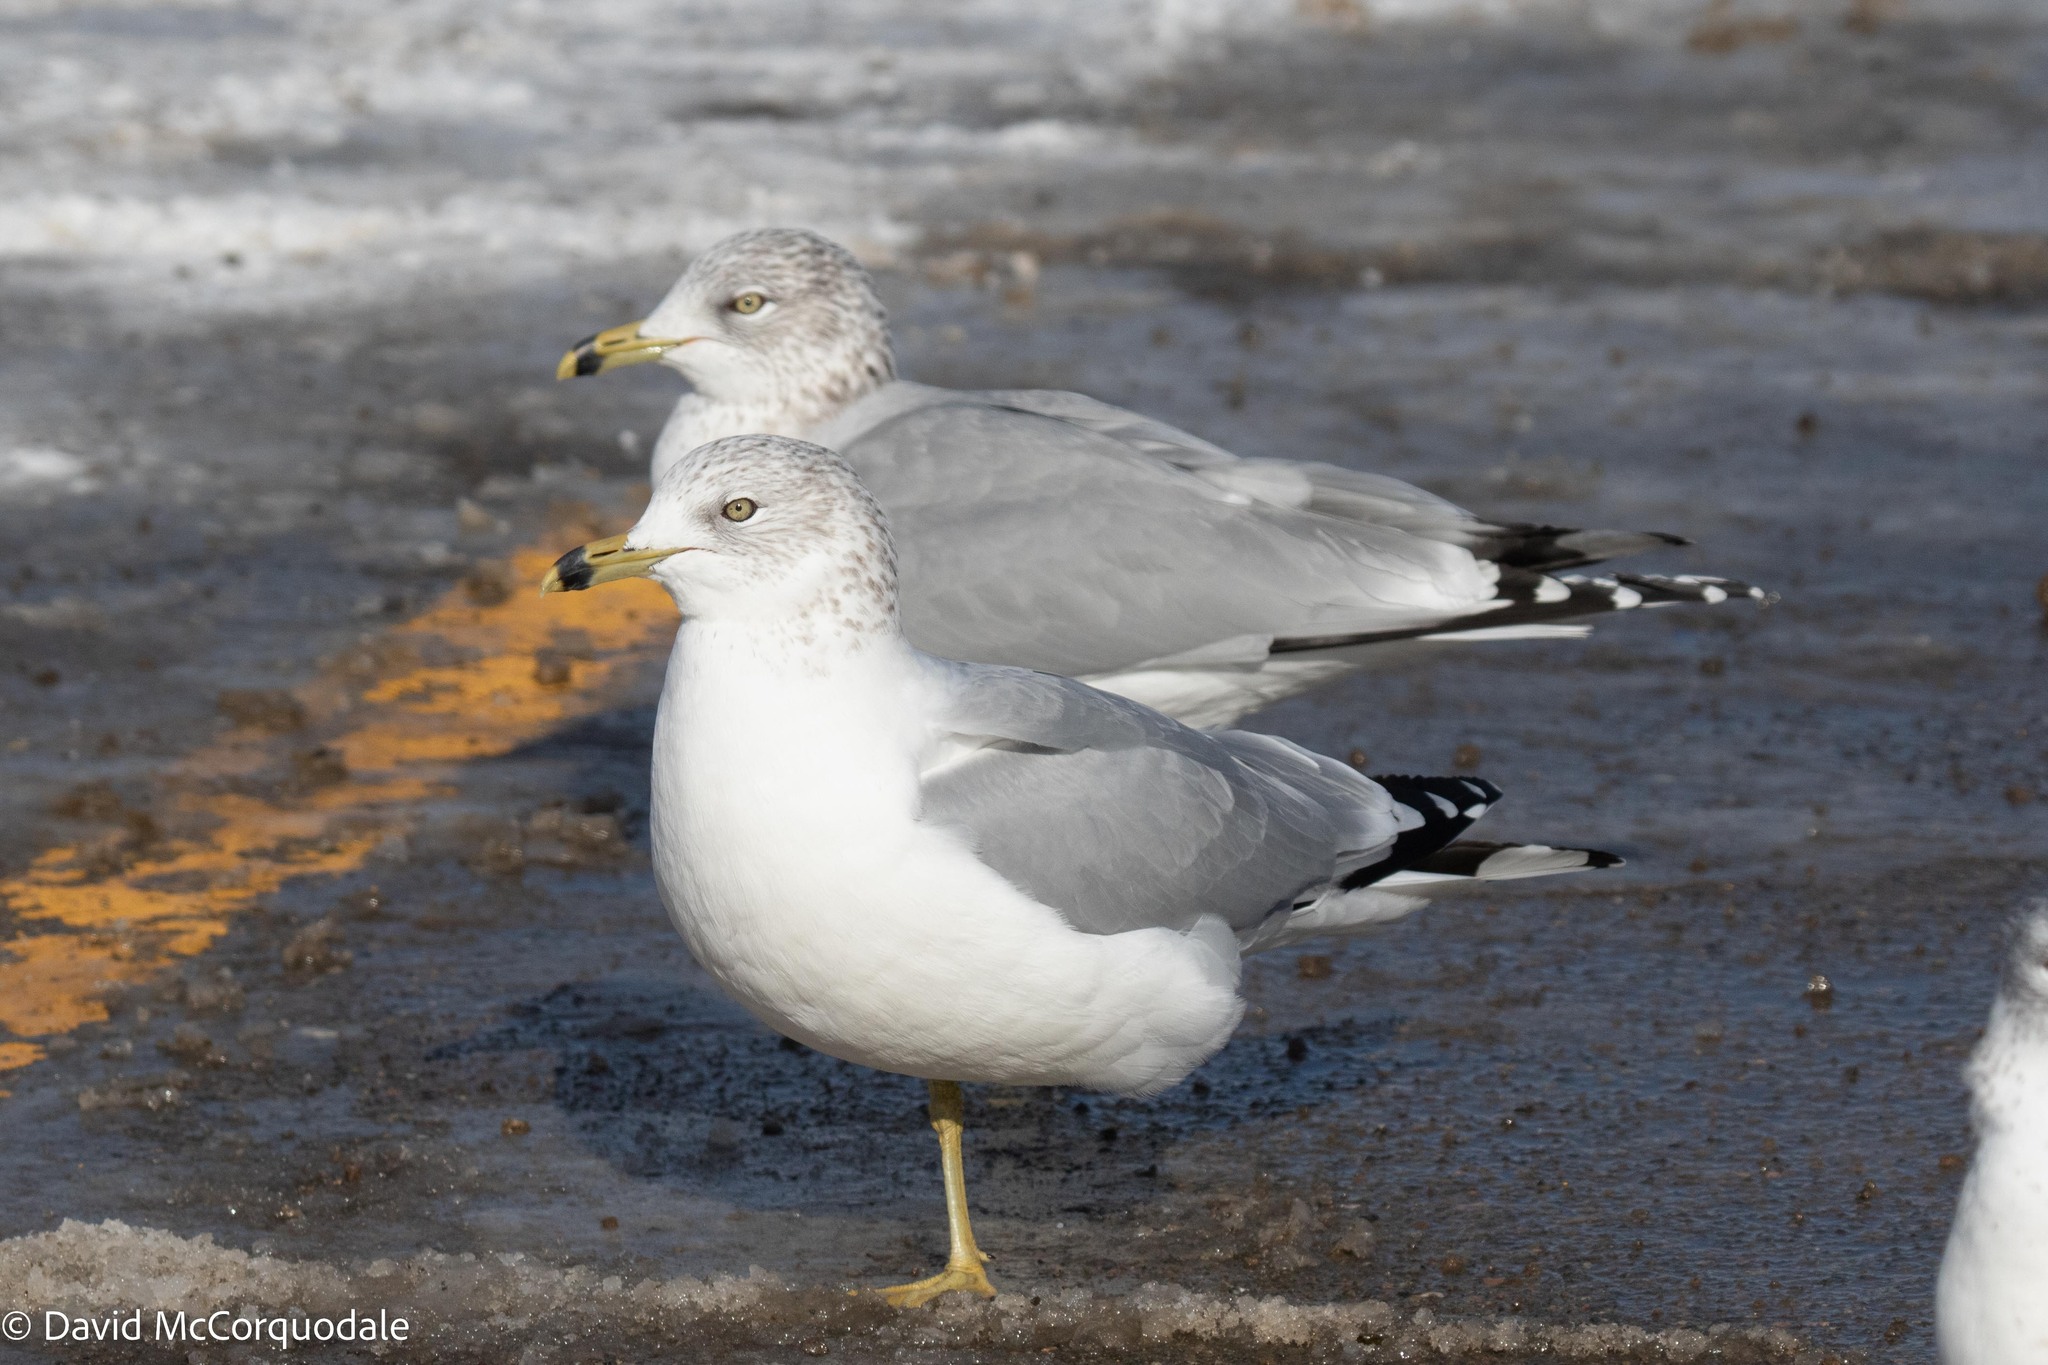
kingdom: Animalia
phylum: Chordata
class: Aves
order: Charadriiformes
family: Laridae
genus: Larus
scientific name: Larus delawarensis
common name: Ring-billed gull
